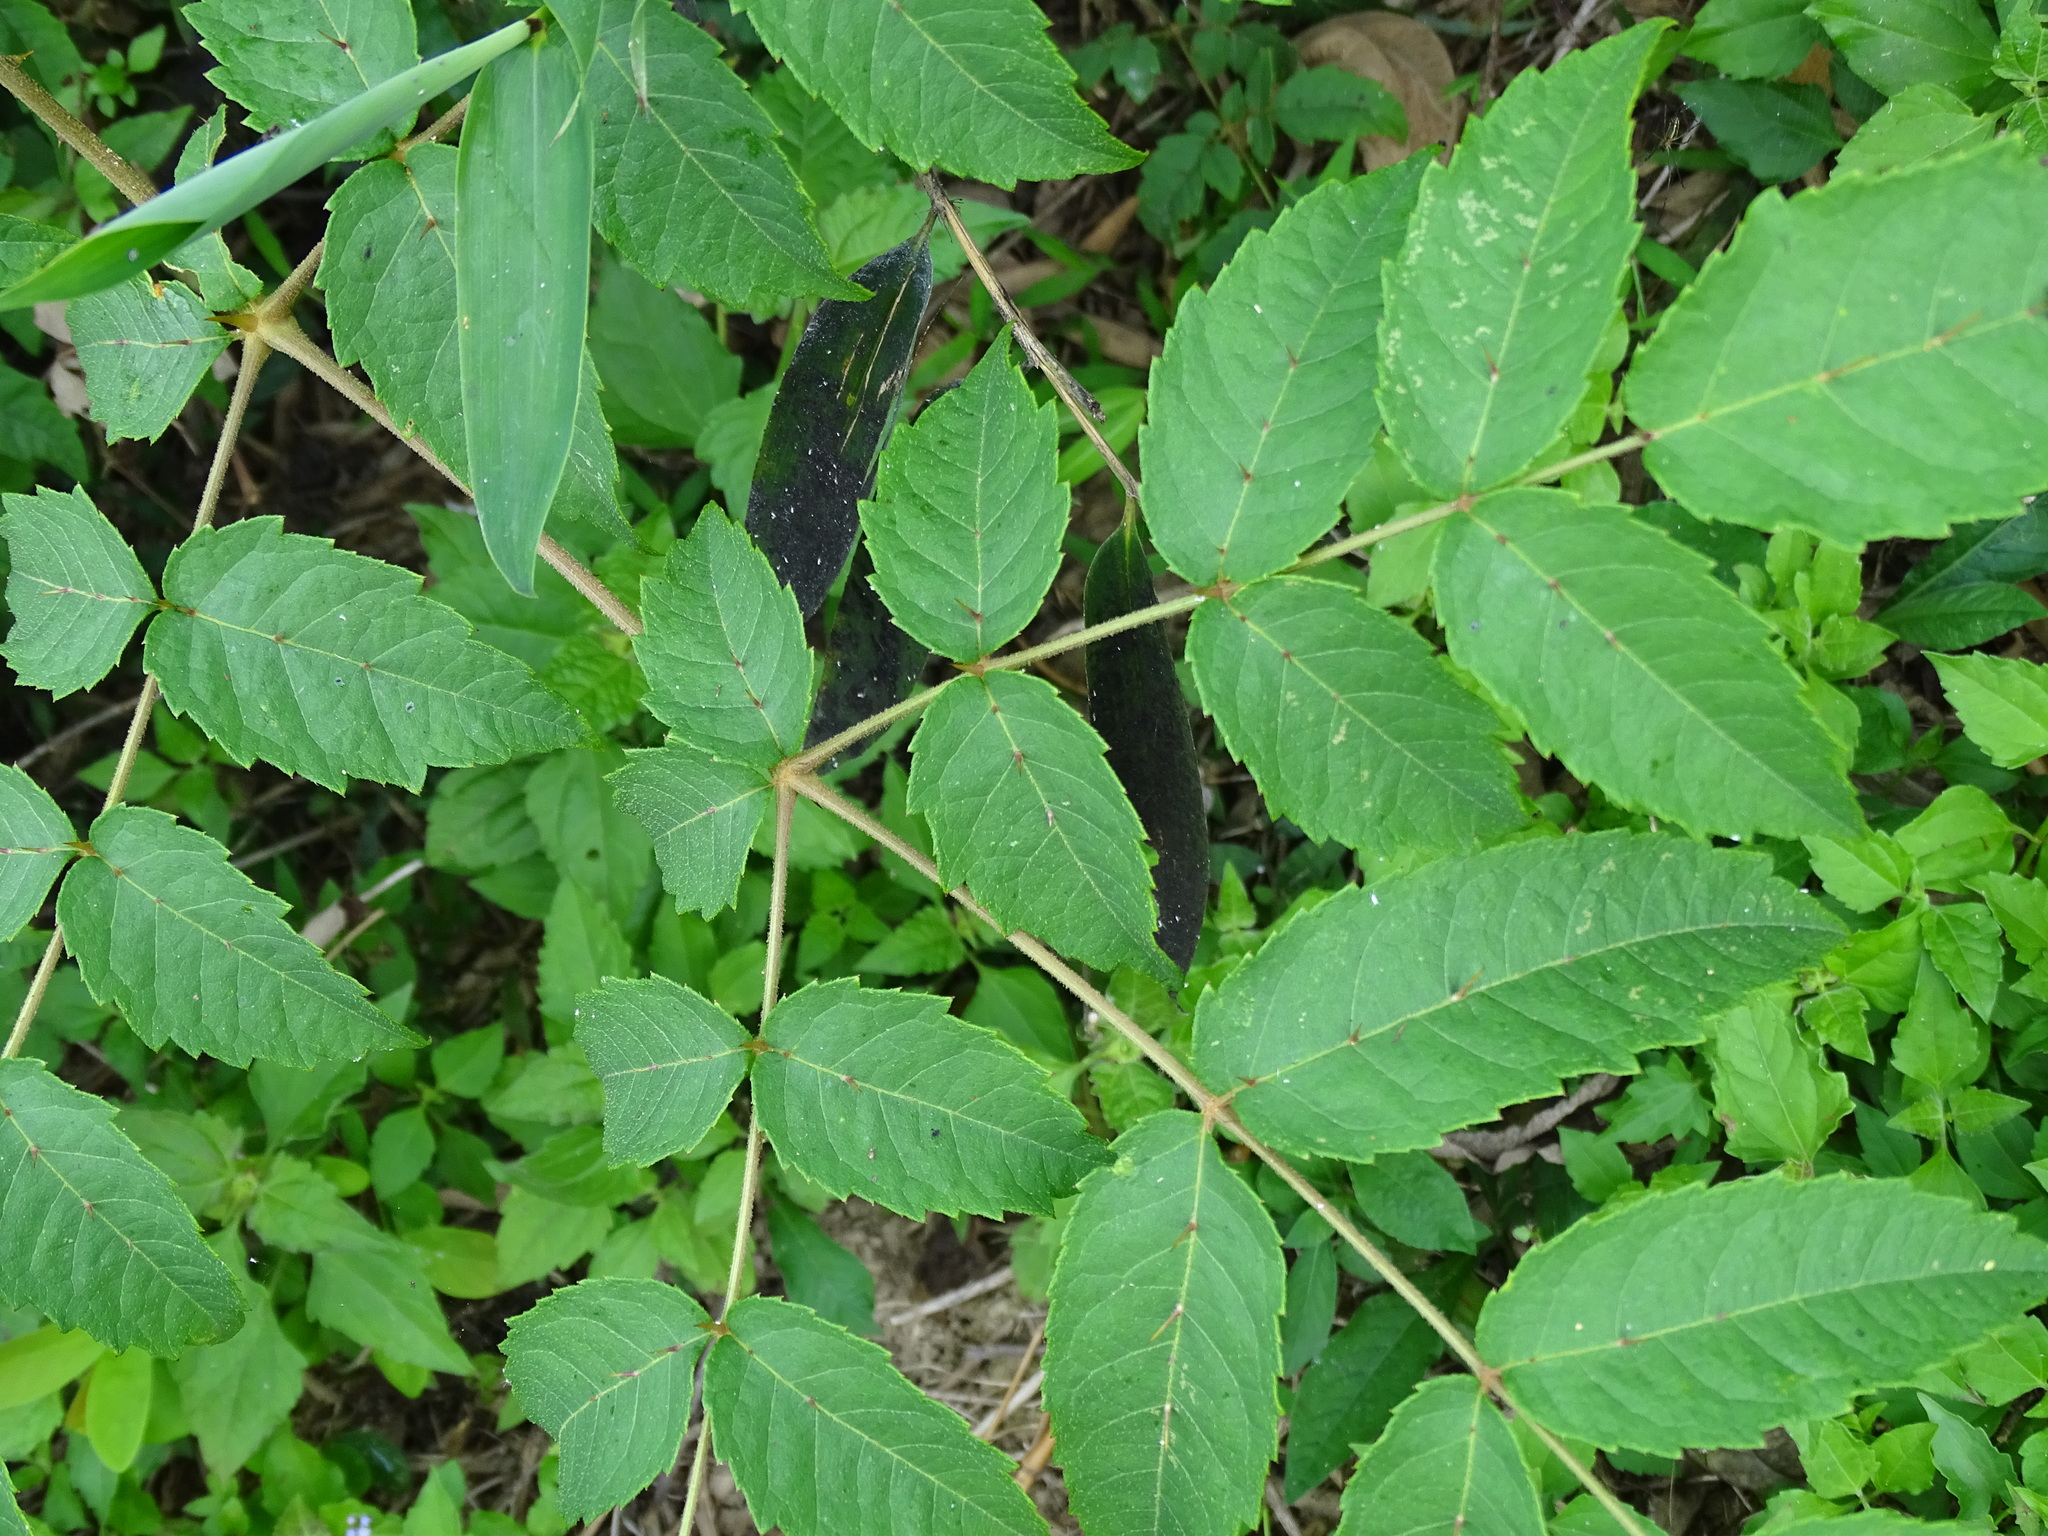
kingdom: Plantae
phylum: Tracheophyta
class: Magnoliopsida
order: Apiales
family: Araliaceae
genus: Aralia
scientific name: Aralia decaisneana
